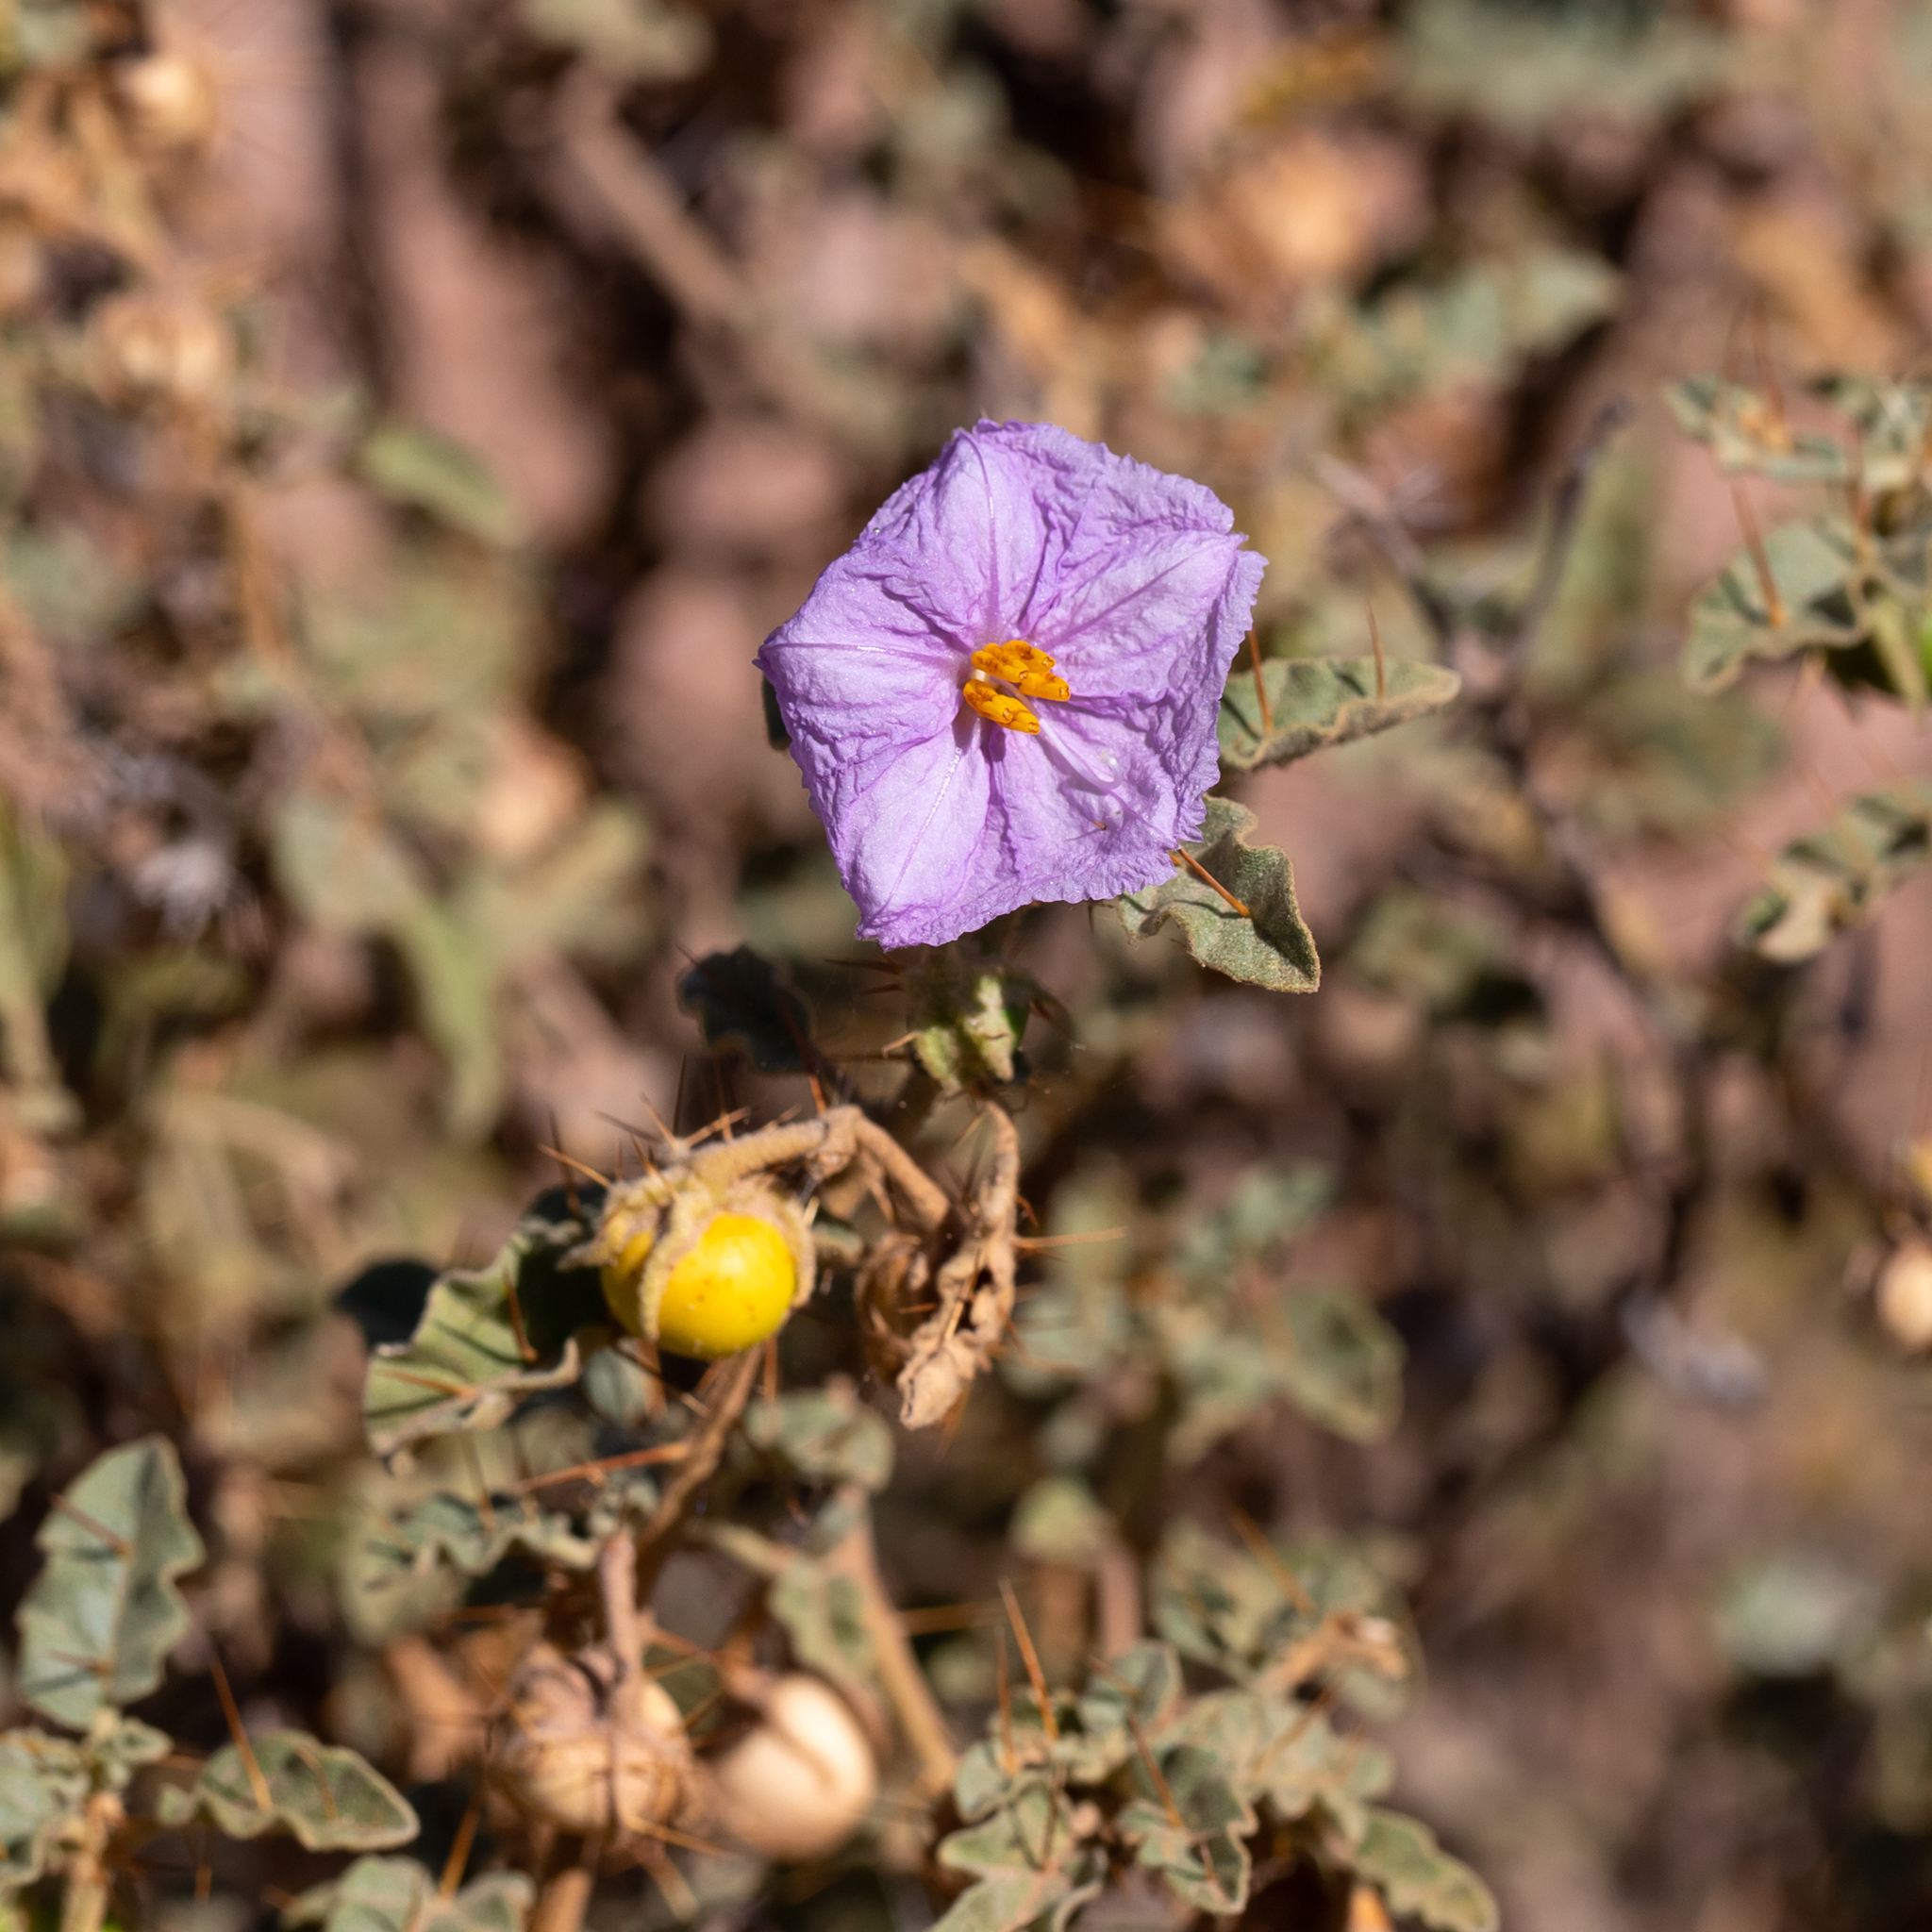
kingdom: Plantae
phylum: Tracheophyta
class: Magnoliopsida
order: Solanales
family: Solanaceae
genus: Solanum
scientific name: Solanum petrophilum
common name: Rock nightshade
